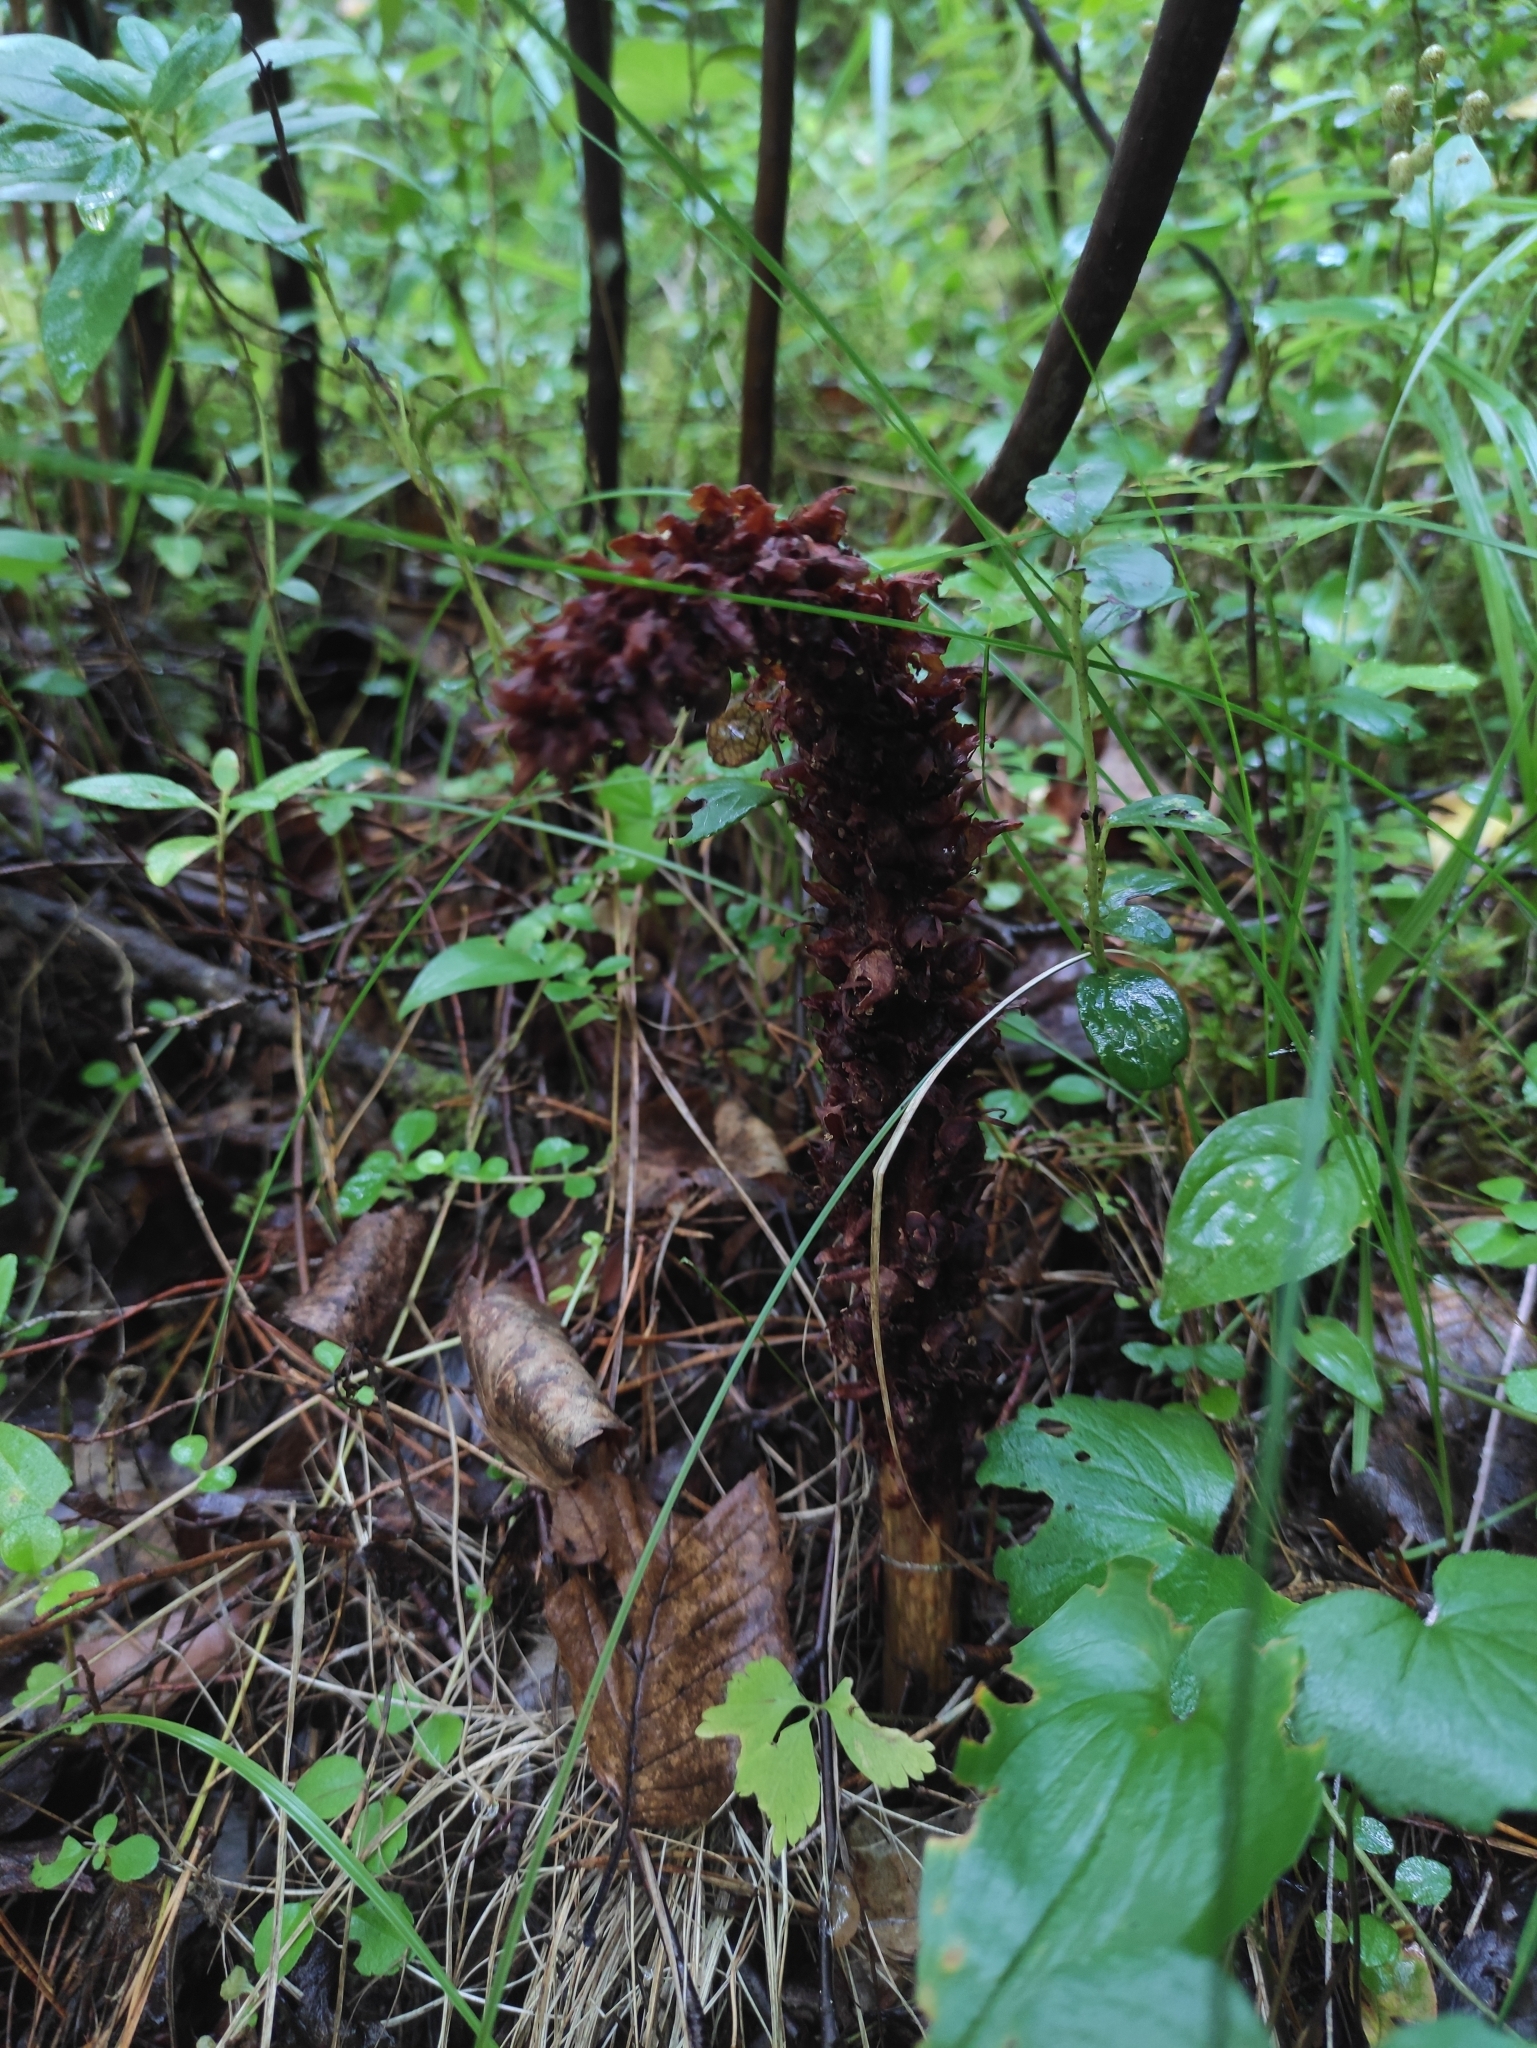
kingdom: Plantae
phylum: Tracheophyta
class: Magnoliopsida
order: Lamiales
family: Orobanchaceae
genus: Boschniakia
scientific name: Boschniakia rossica
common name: Poque
